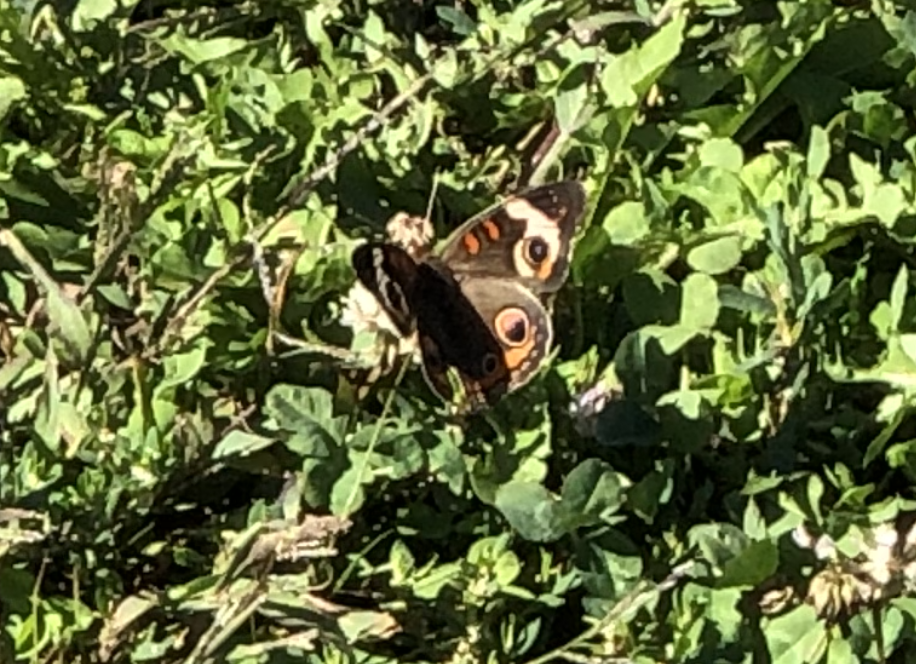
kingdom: Animalia
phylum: Arthropoda
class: Insecta
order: Lepidoptera
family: Nymphalidae
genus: Junonia
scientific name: Junonia coenia
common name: Common buckeye
